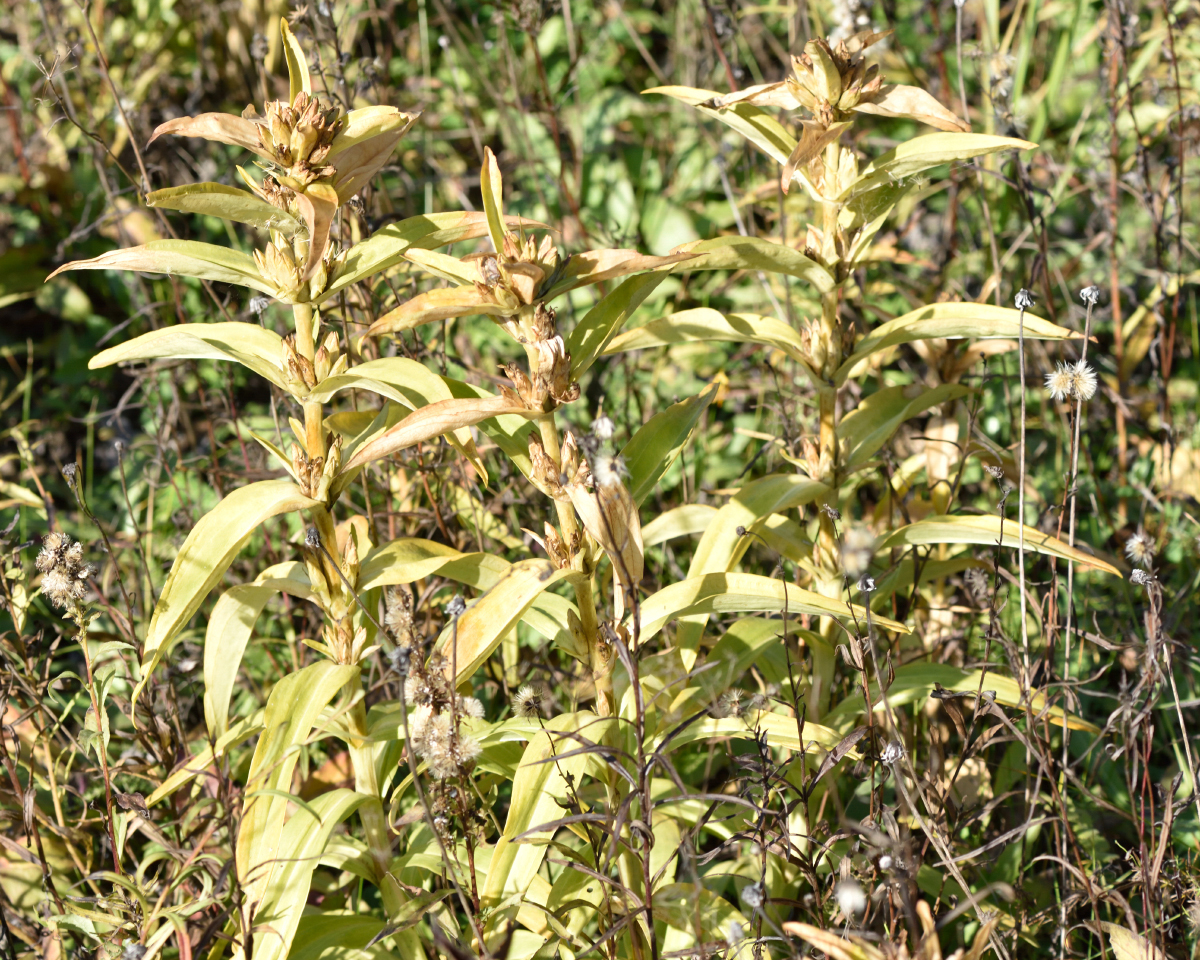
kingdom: Plantae
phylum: Tracheophyta
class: Magnoliopsida
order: Gentianales
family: Gentianaceae
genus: Gentiana
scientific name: Gentiana cruciata
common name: Cross gentian
